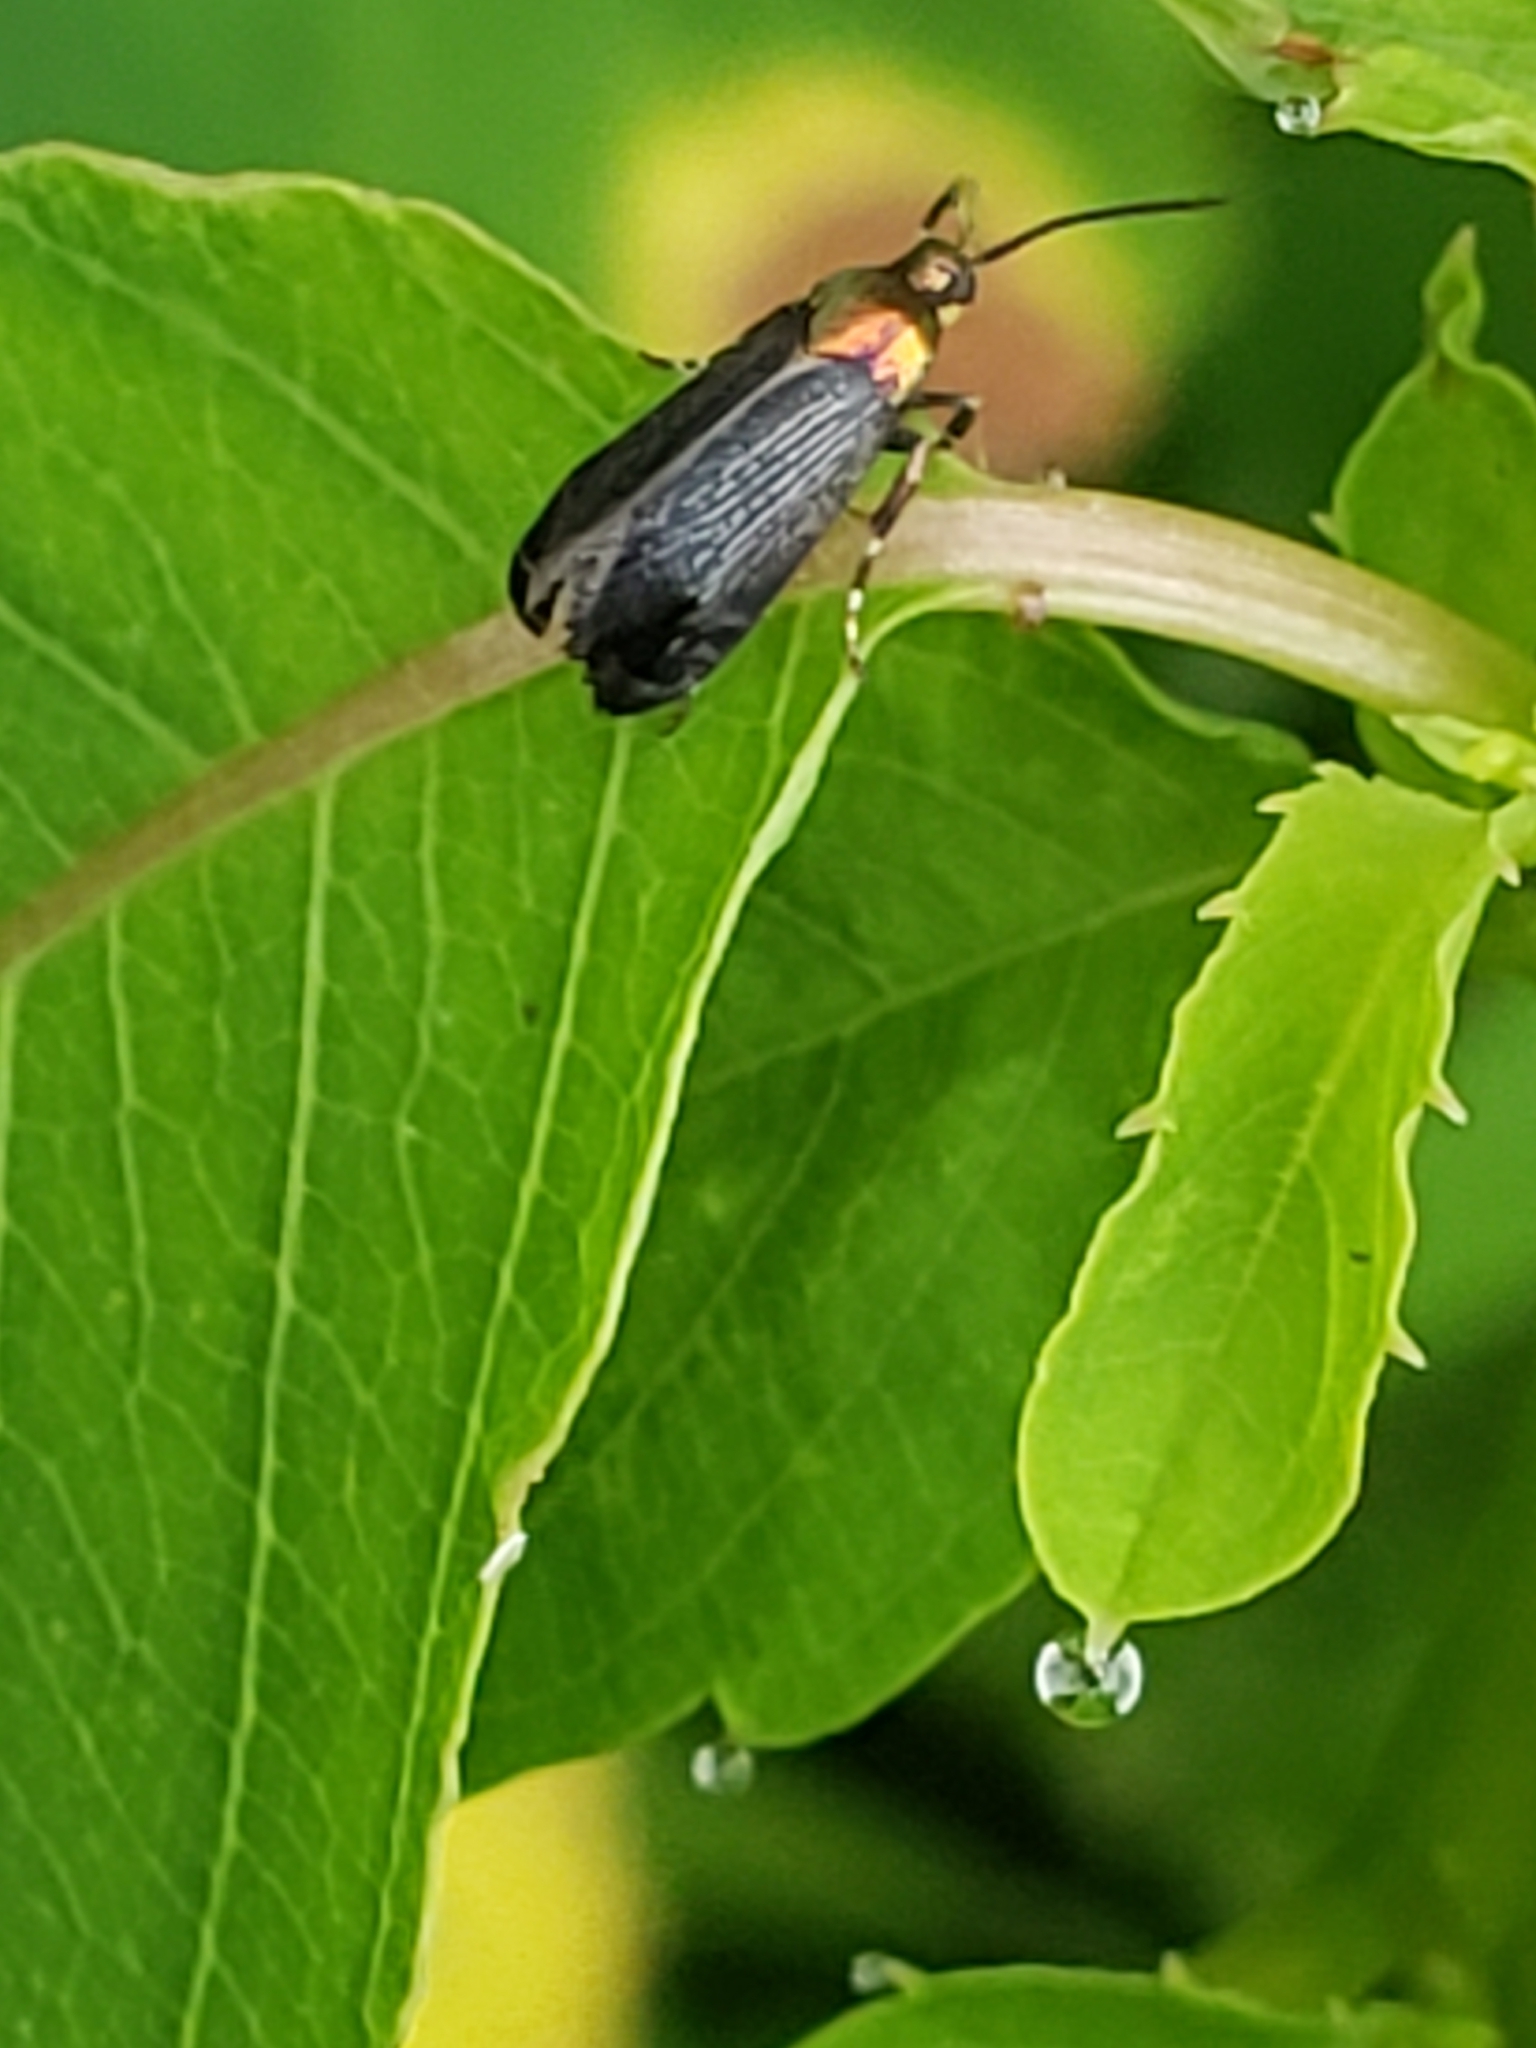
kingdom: Animalia
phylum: Arthropoda
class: Insecta
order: Lepidoptera
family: Glyphipterigidae
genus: Abrenthia
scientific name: Abrenthia cuprea
